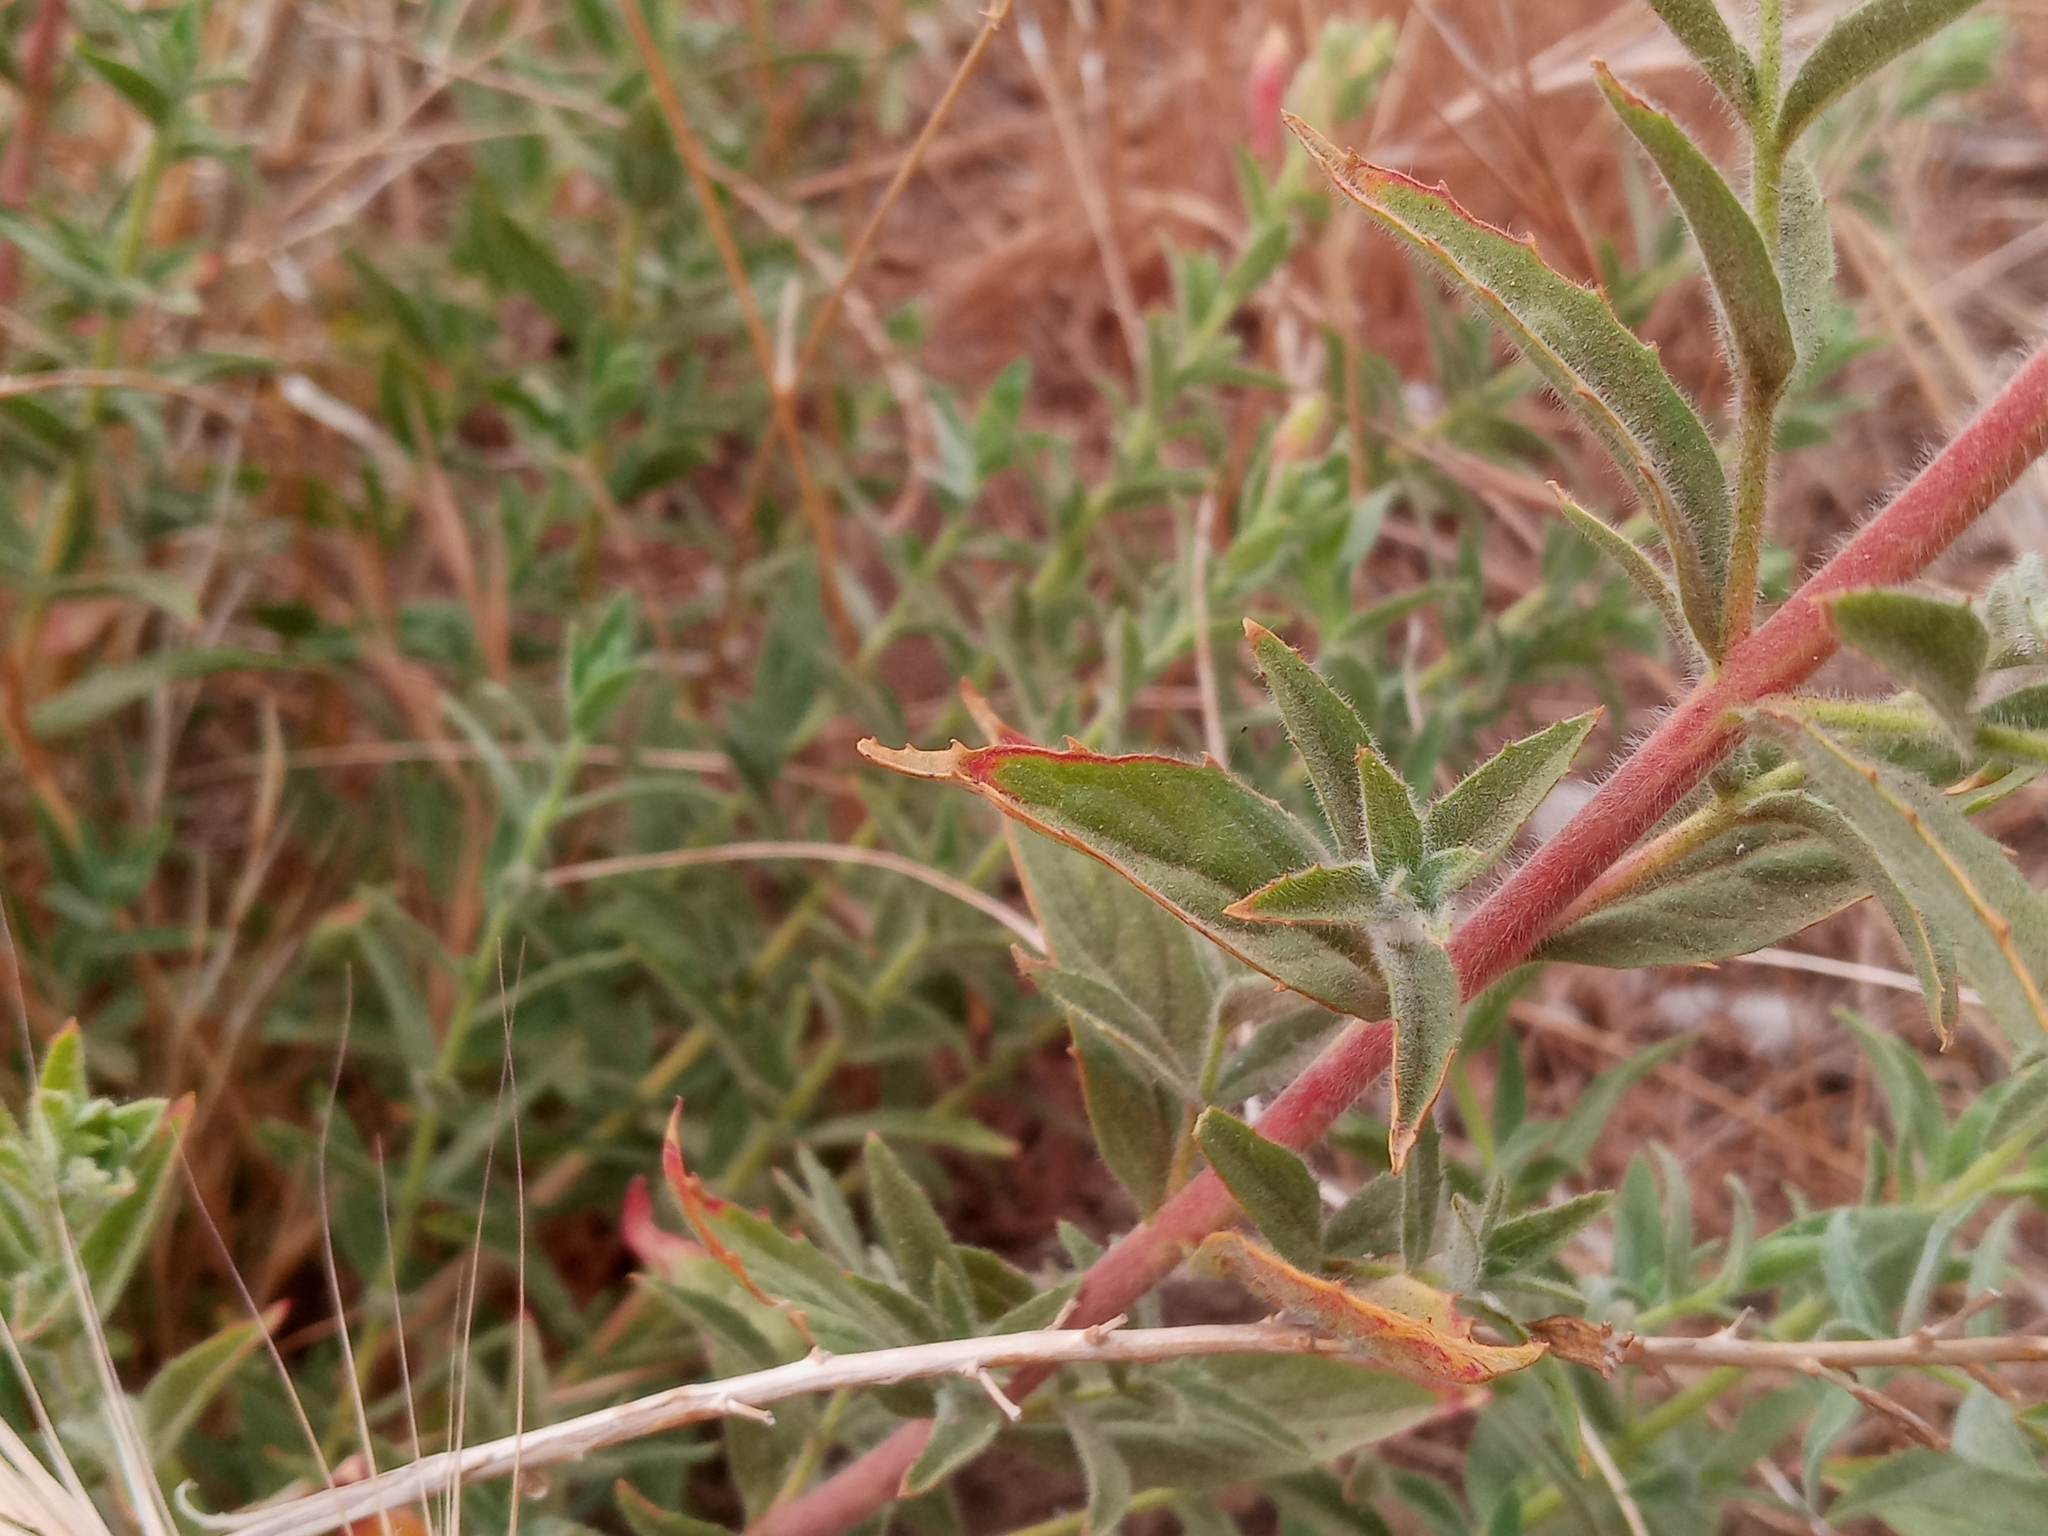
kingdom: Plantae
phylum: Tracheophyta
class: Magnoliopsida
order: Myrtales
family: Onagraceae
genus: Epilobium
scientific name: Epilobium canum
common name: California-fuchsia
